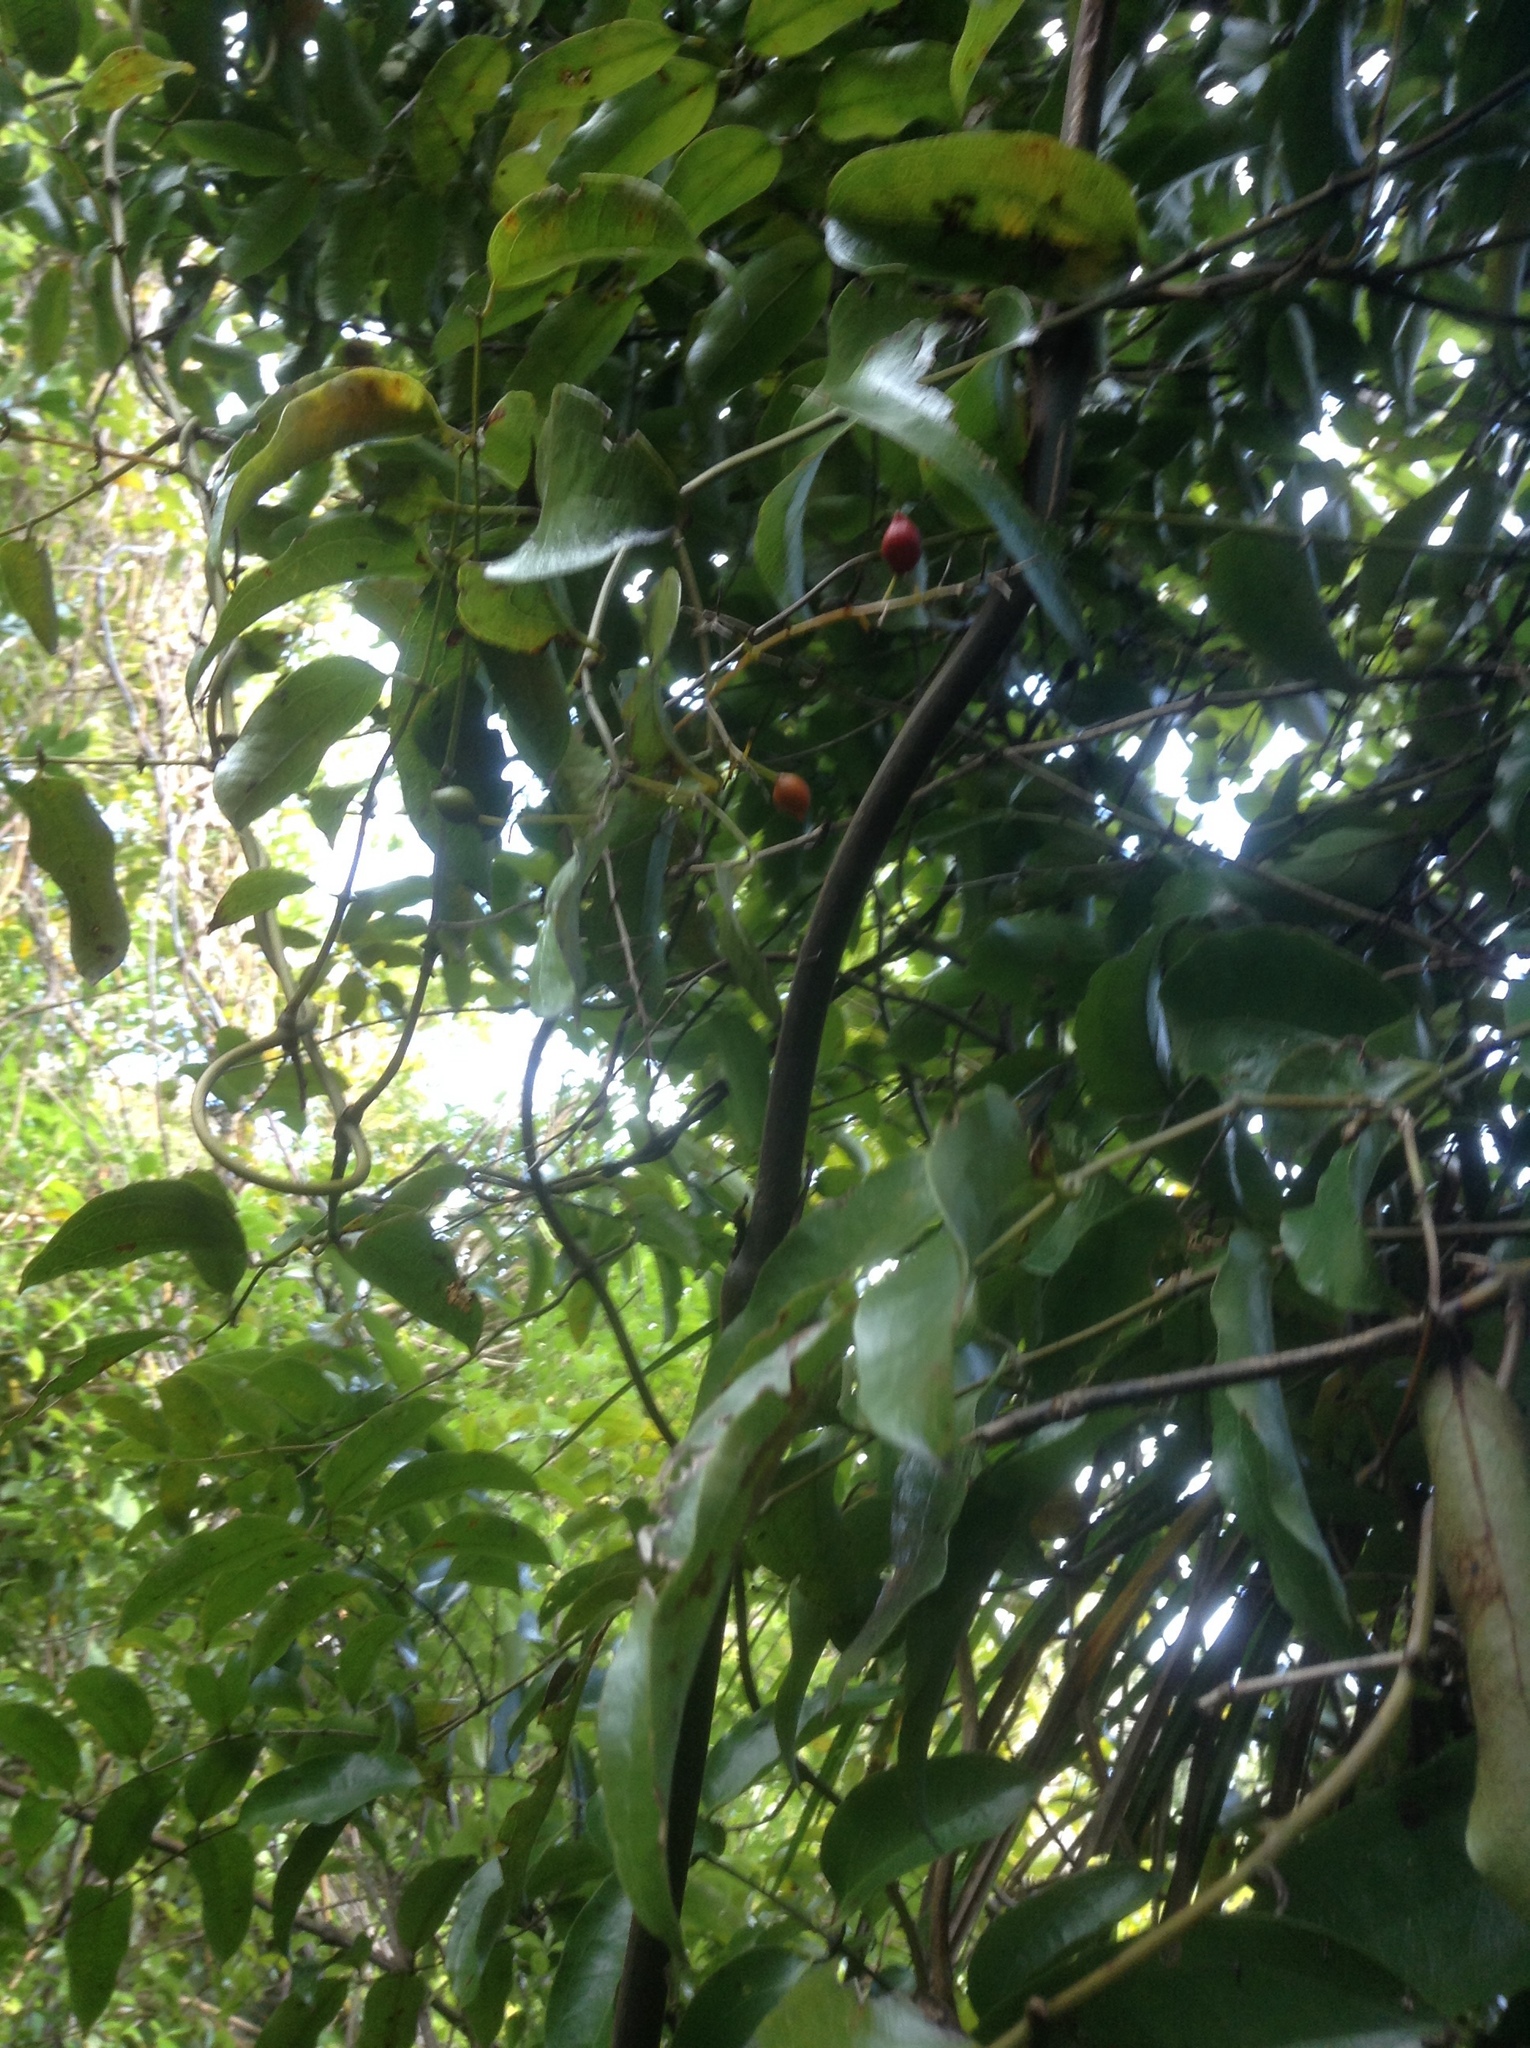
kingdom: Plantae
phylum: Tracheophyta
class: Liliopsida
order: Liliales
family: Ripogonaceae
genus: Ripogonum
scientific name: Ripogonum scandens
